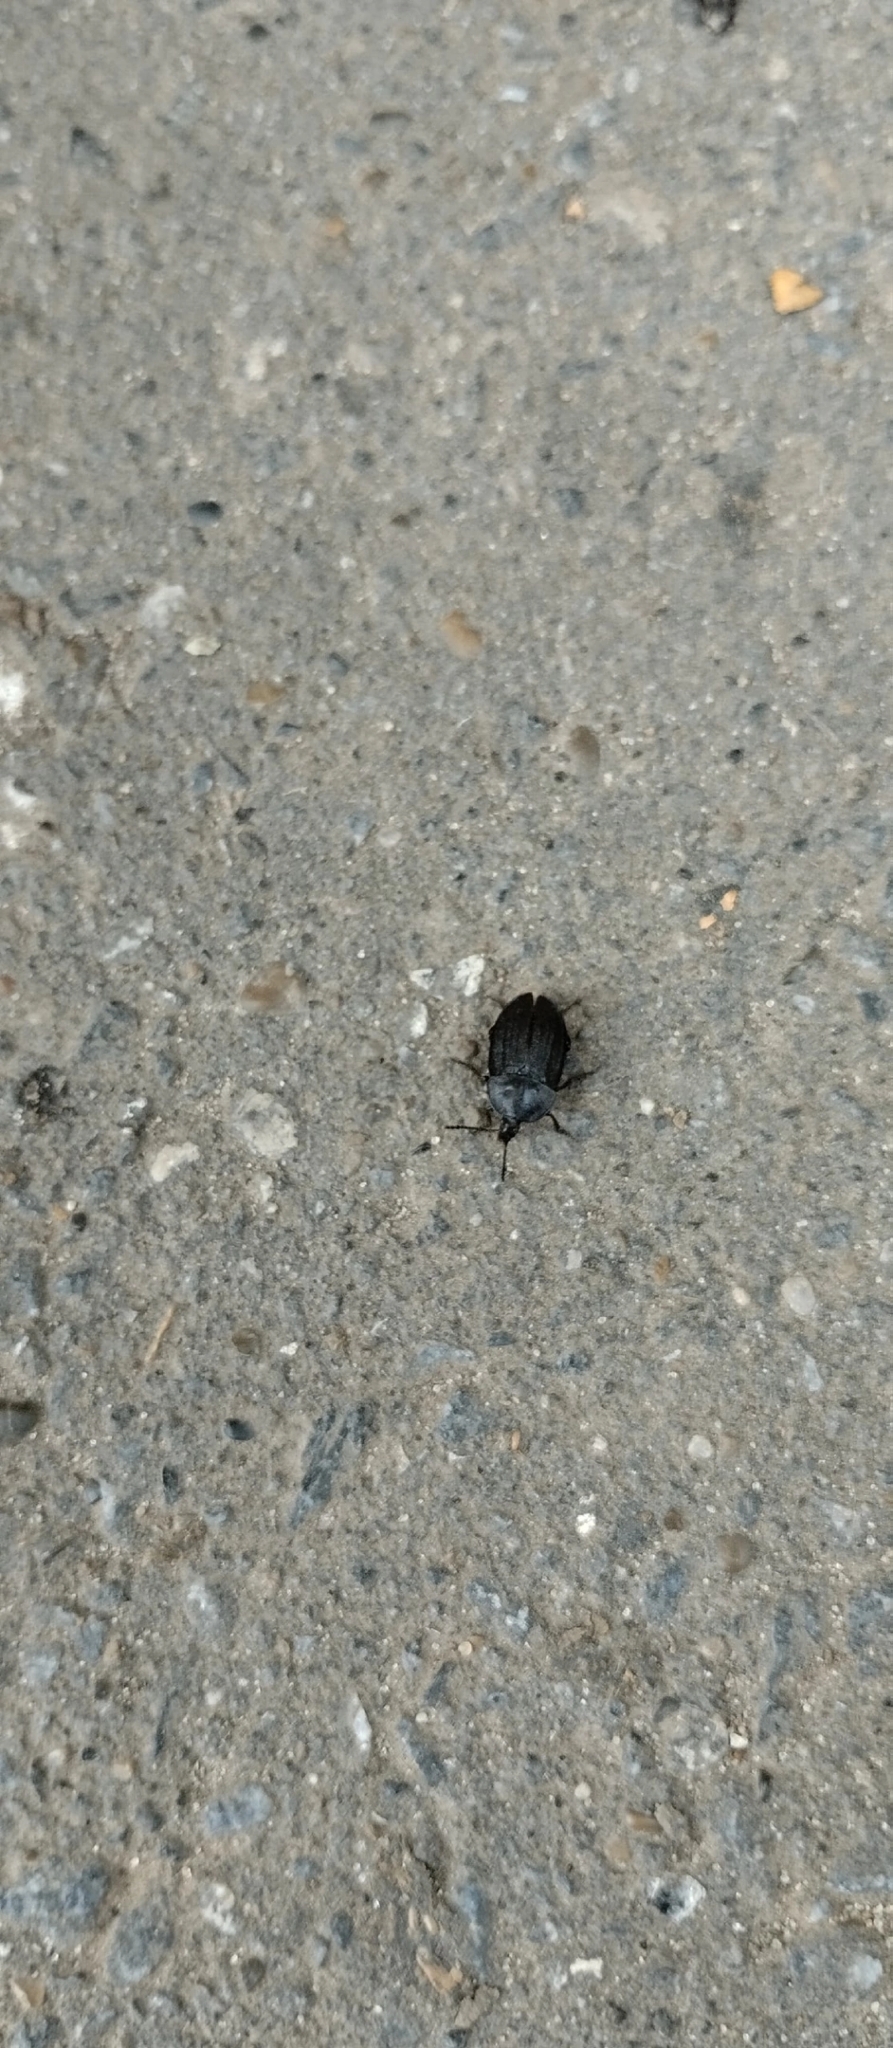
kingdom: Animalia
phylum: Arthropoda
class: Insecta
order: Coleoptera
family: Staphylinidae
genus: Silpha
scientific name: Silpha atrata
